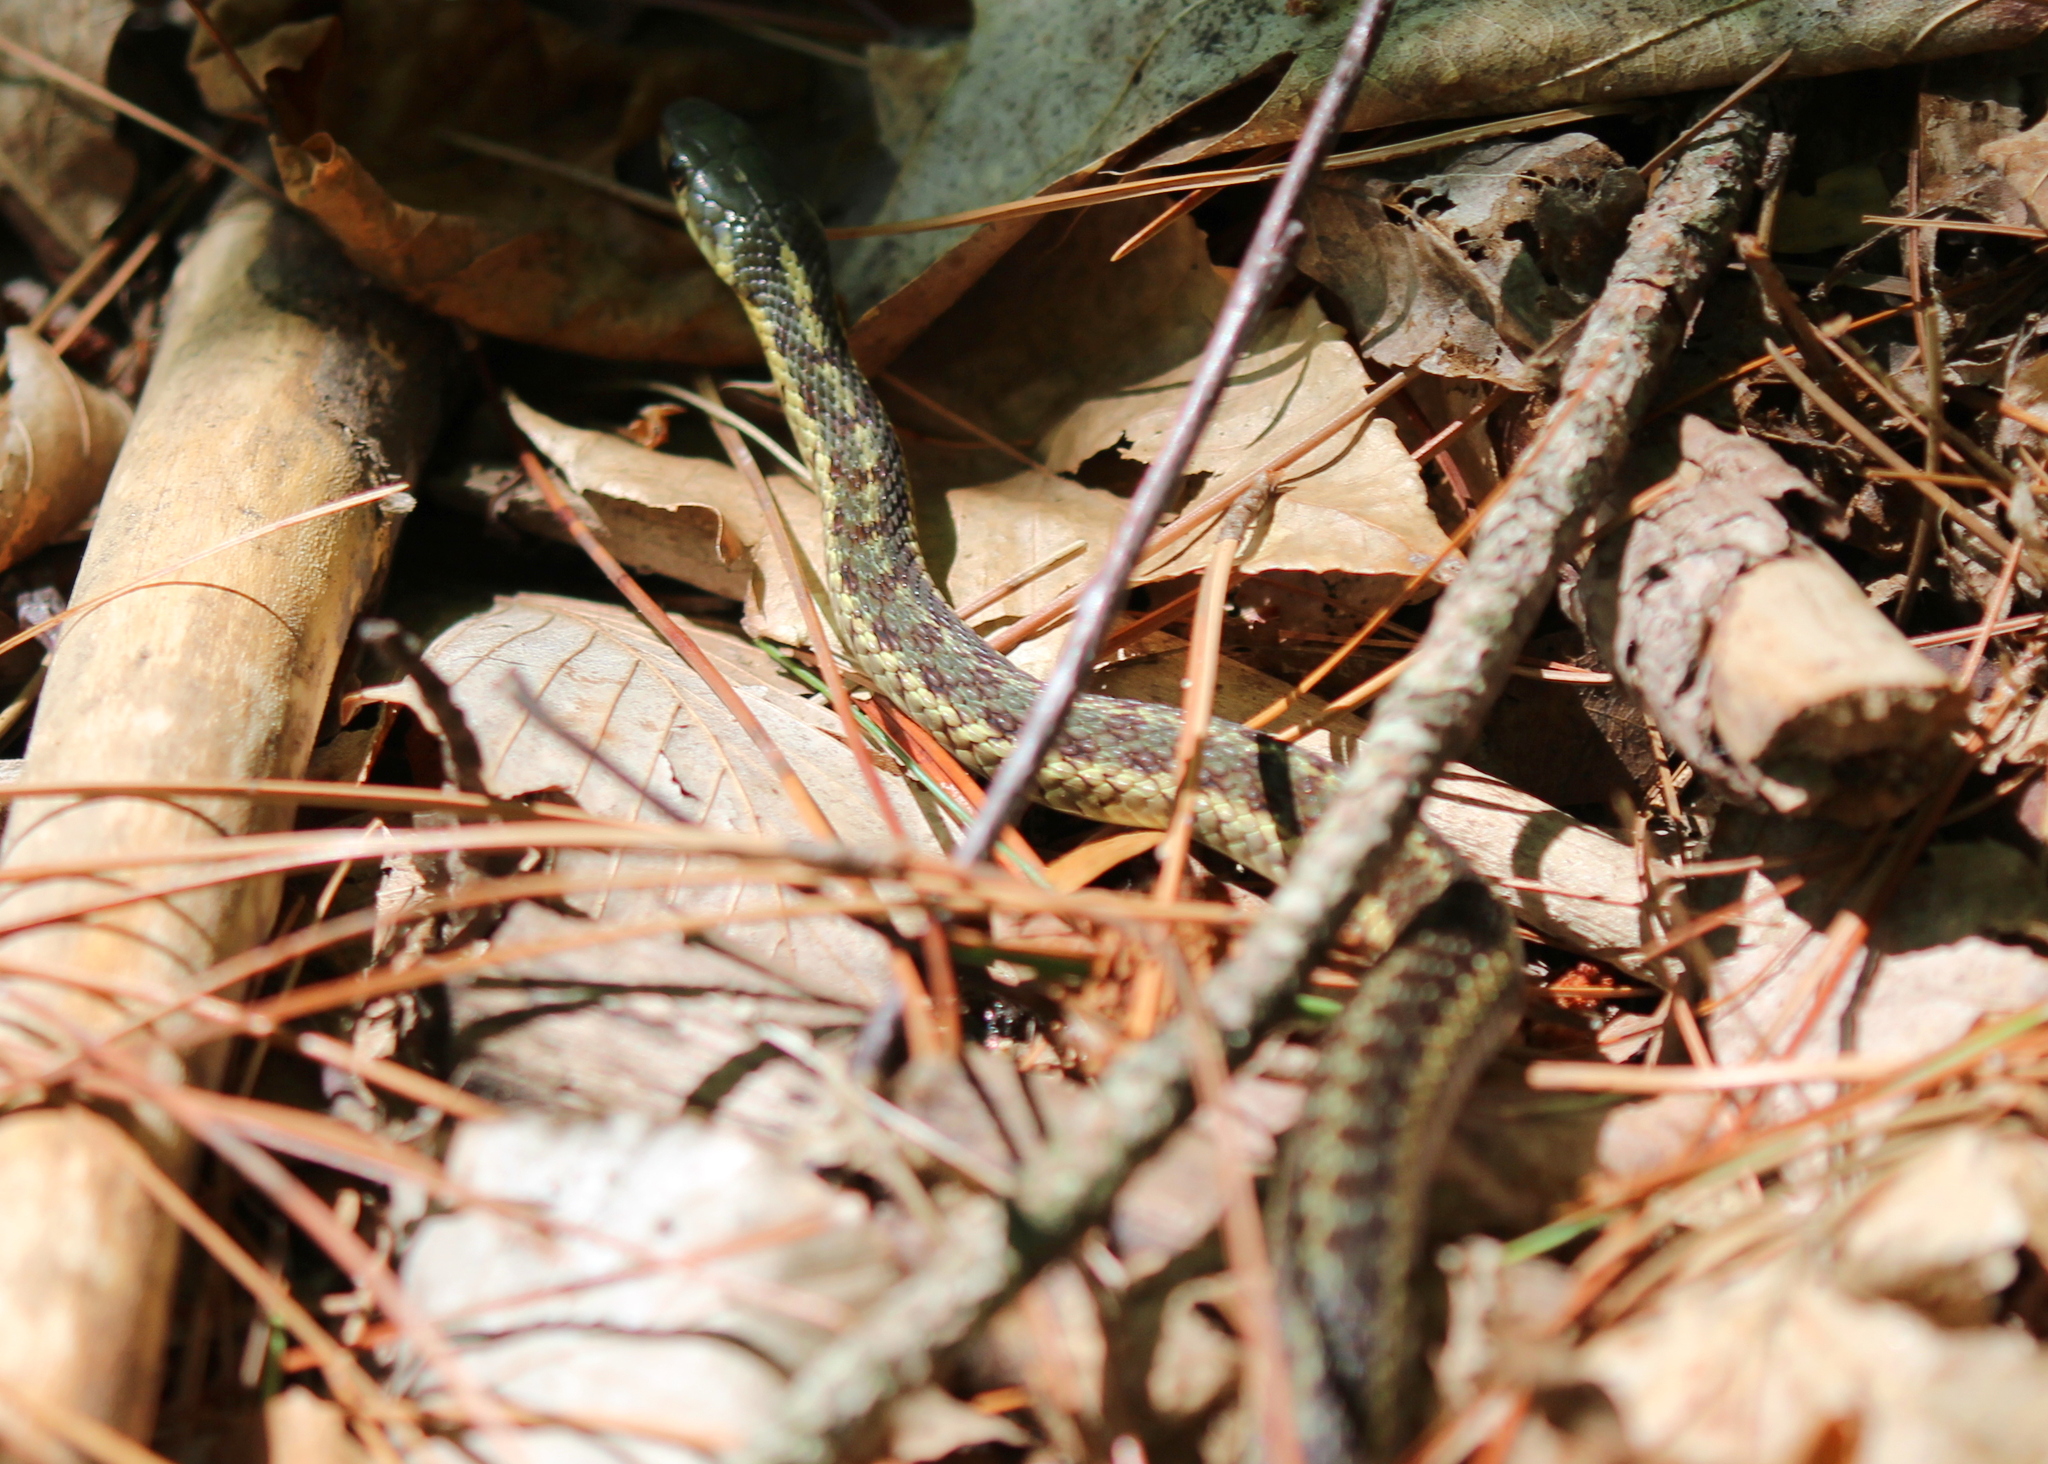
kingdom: Animalia
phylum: Chordata
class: Squamata
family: Colubridae
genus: Thamnophis
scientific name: Thamnophis sirtalis
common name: Common garter snake
